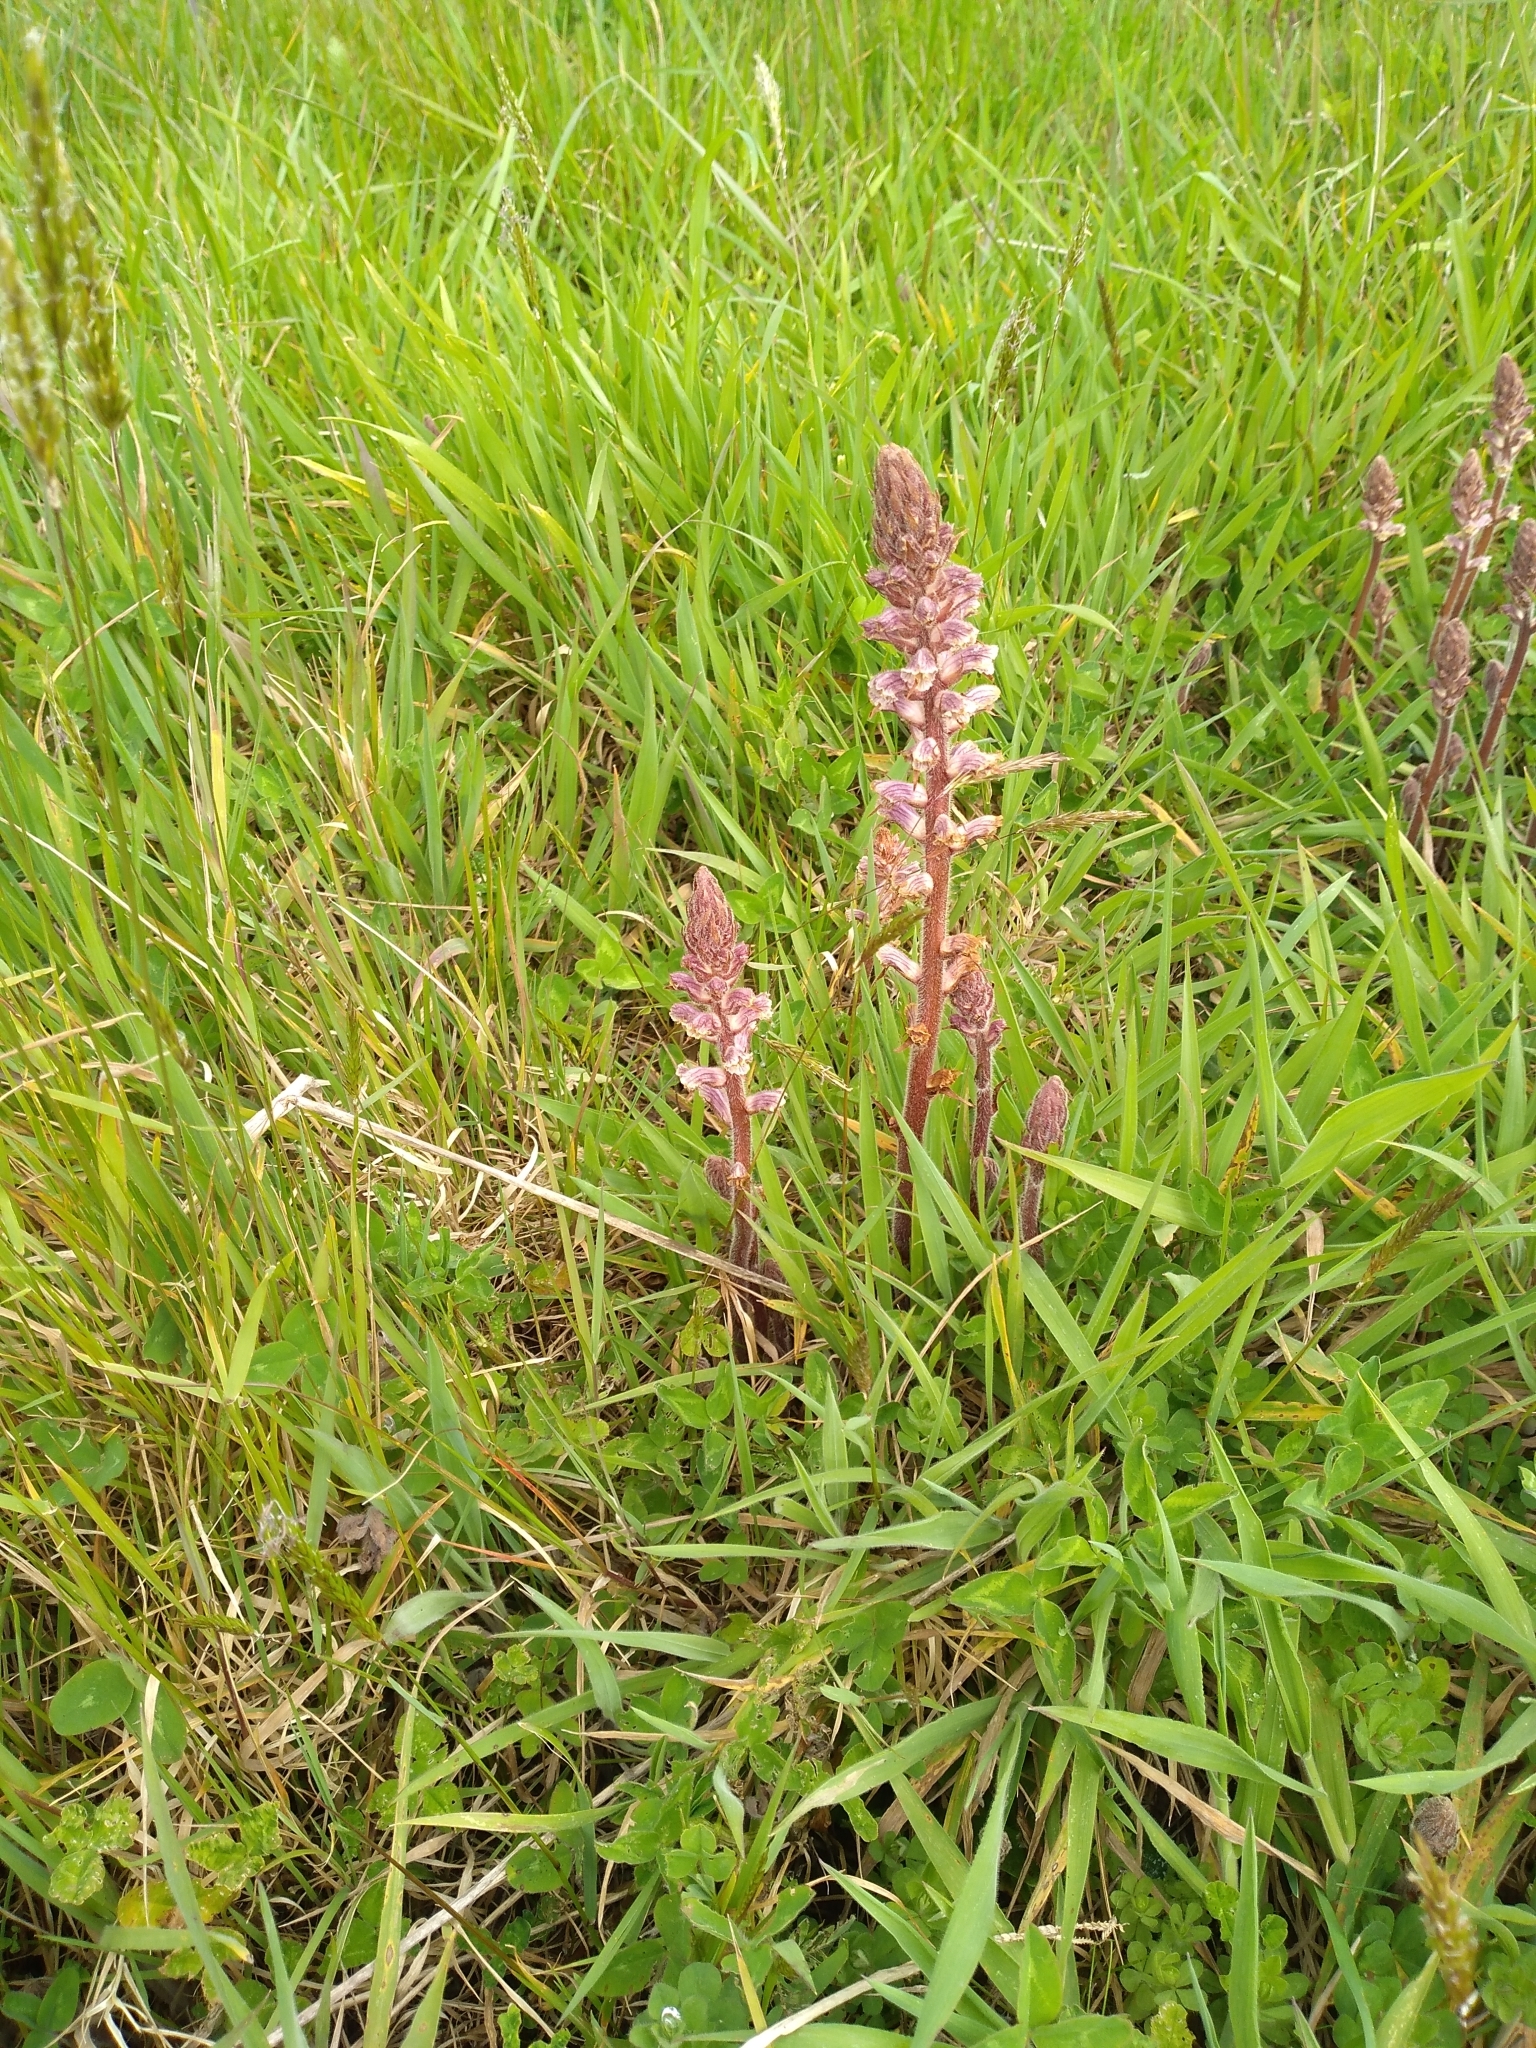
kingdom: Plantae
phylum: Tracheophyta
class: Magnoliopsida
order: Lamiales
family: Orobanchaceae
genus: Orobanche
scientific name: Orobanche minor
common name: Common broomrape
